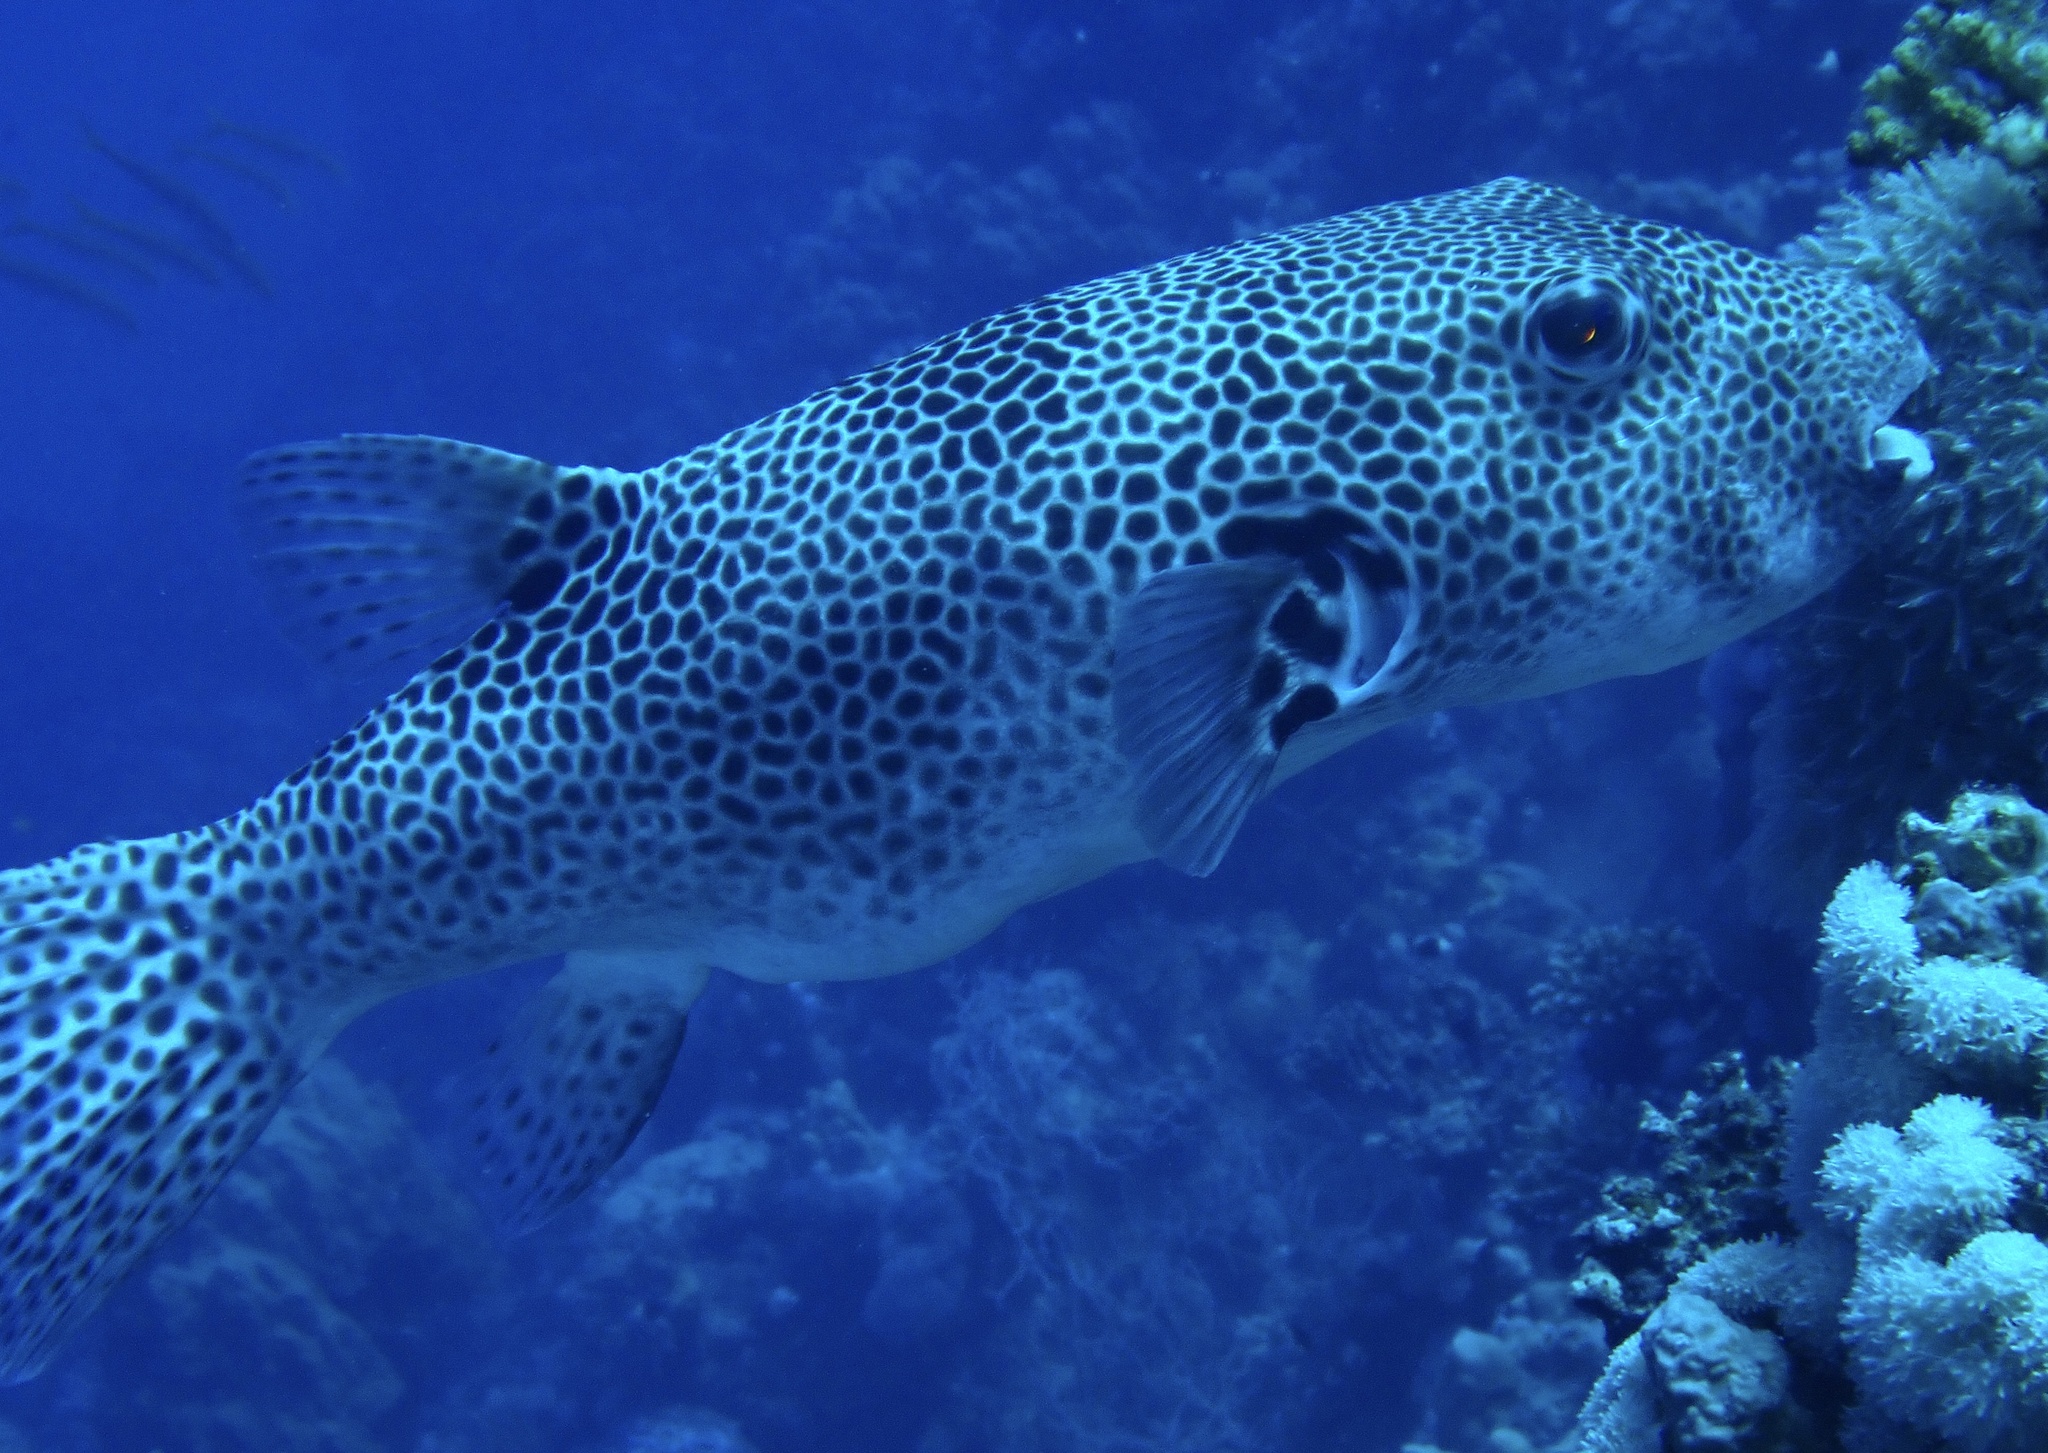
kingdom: Animalia
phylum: Chordata
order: Tetraodontiformes
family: Tetraodontidae
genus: Arothron
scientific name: Arothron stellatus
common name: Star blaasop
